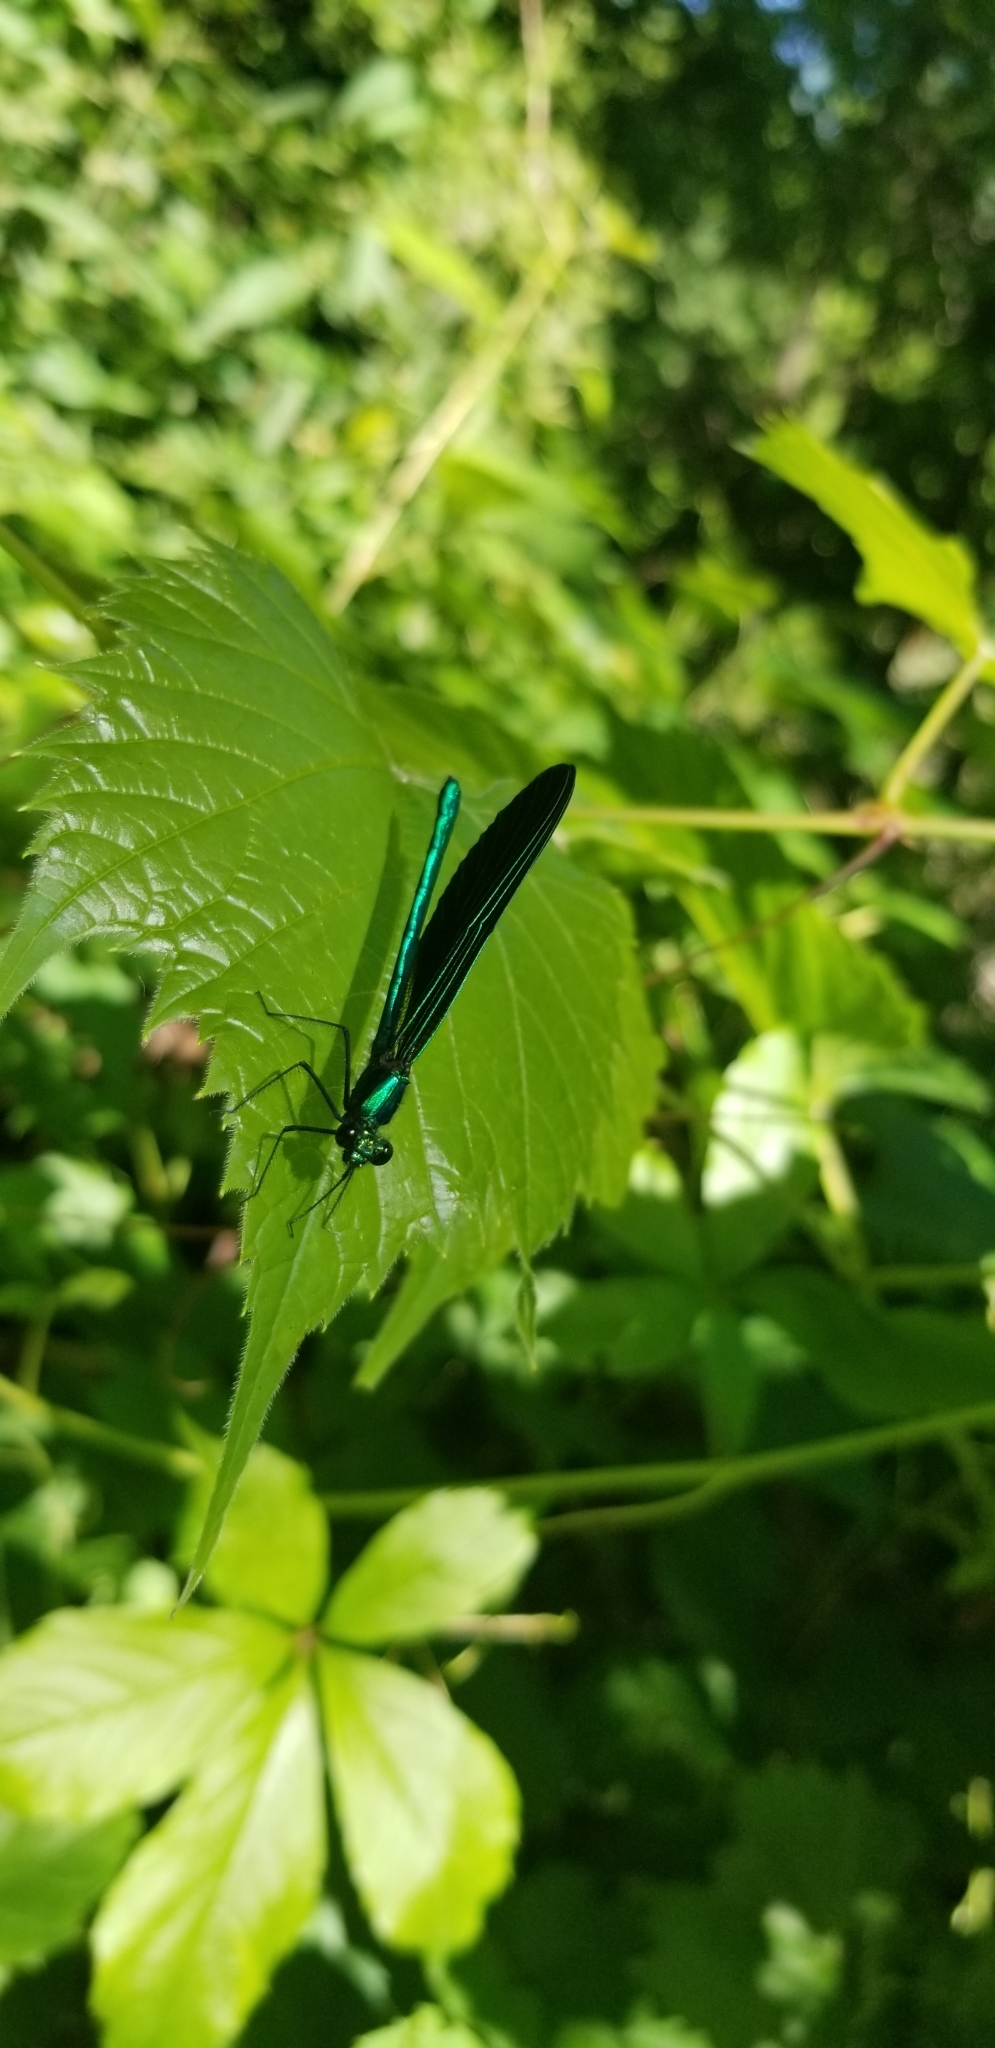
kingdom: Animalia
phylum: Arthropoda
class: Insecta
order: Odonata
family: Calopterygidae
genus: Calopteryx
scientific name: Calopteryx maculata
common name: Ebony jewelwing
